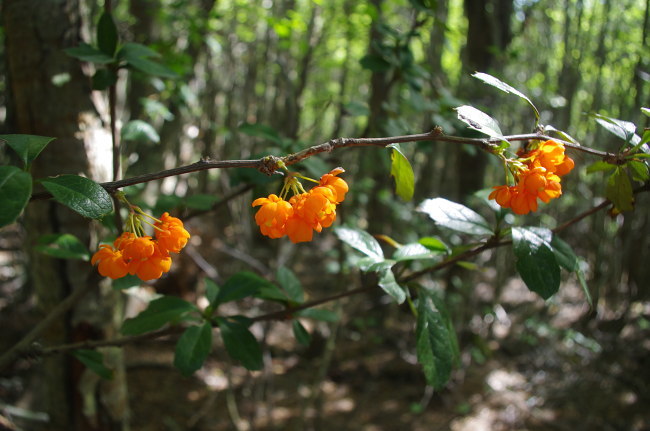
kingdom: Plantae
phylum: Tracheophyta
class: Magnoliopsida
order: Ranunculales
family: Berberidaceae
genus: Berberis
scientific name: Berberis ilicifolia
